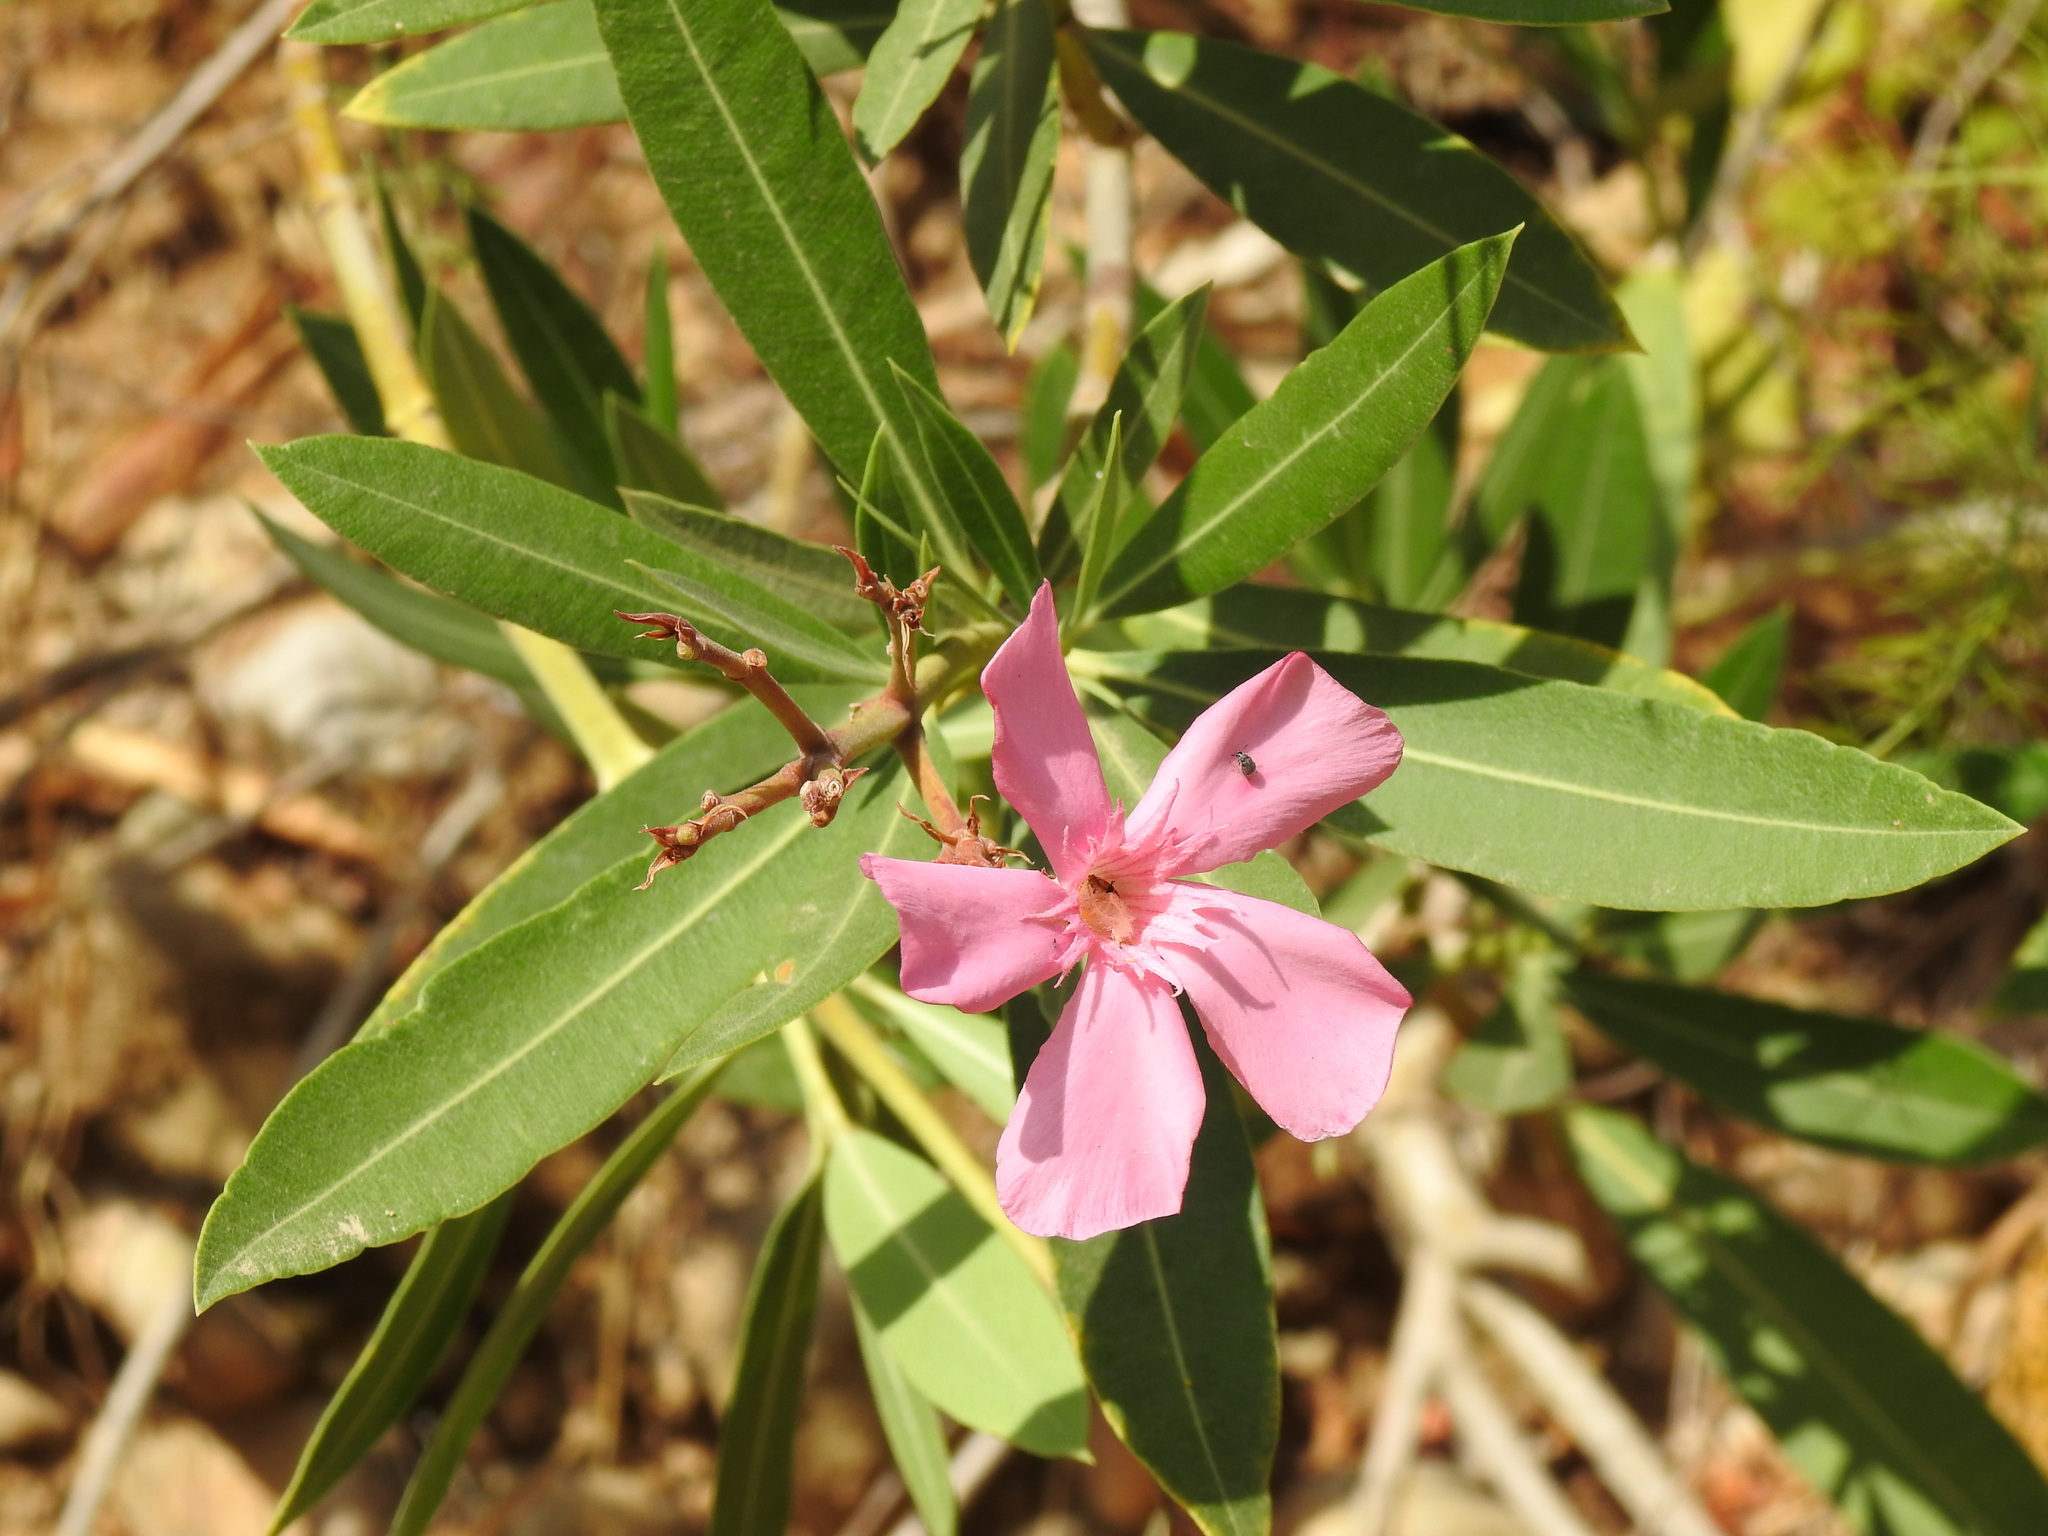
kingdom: Plantae
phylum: Tracheophyta
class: Magnoliopsida
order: Gentianales
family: Apocynaceae
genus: Nerium
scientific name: Nerium oleander
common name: Oleander
